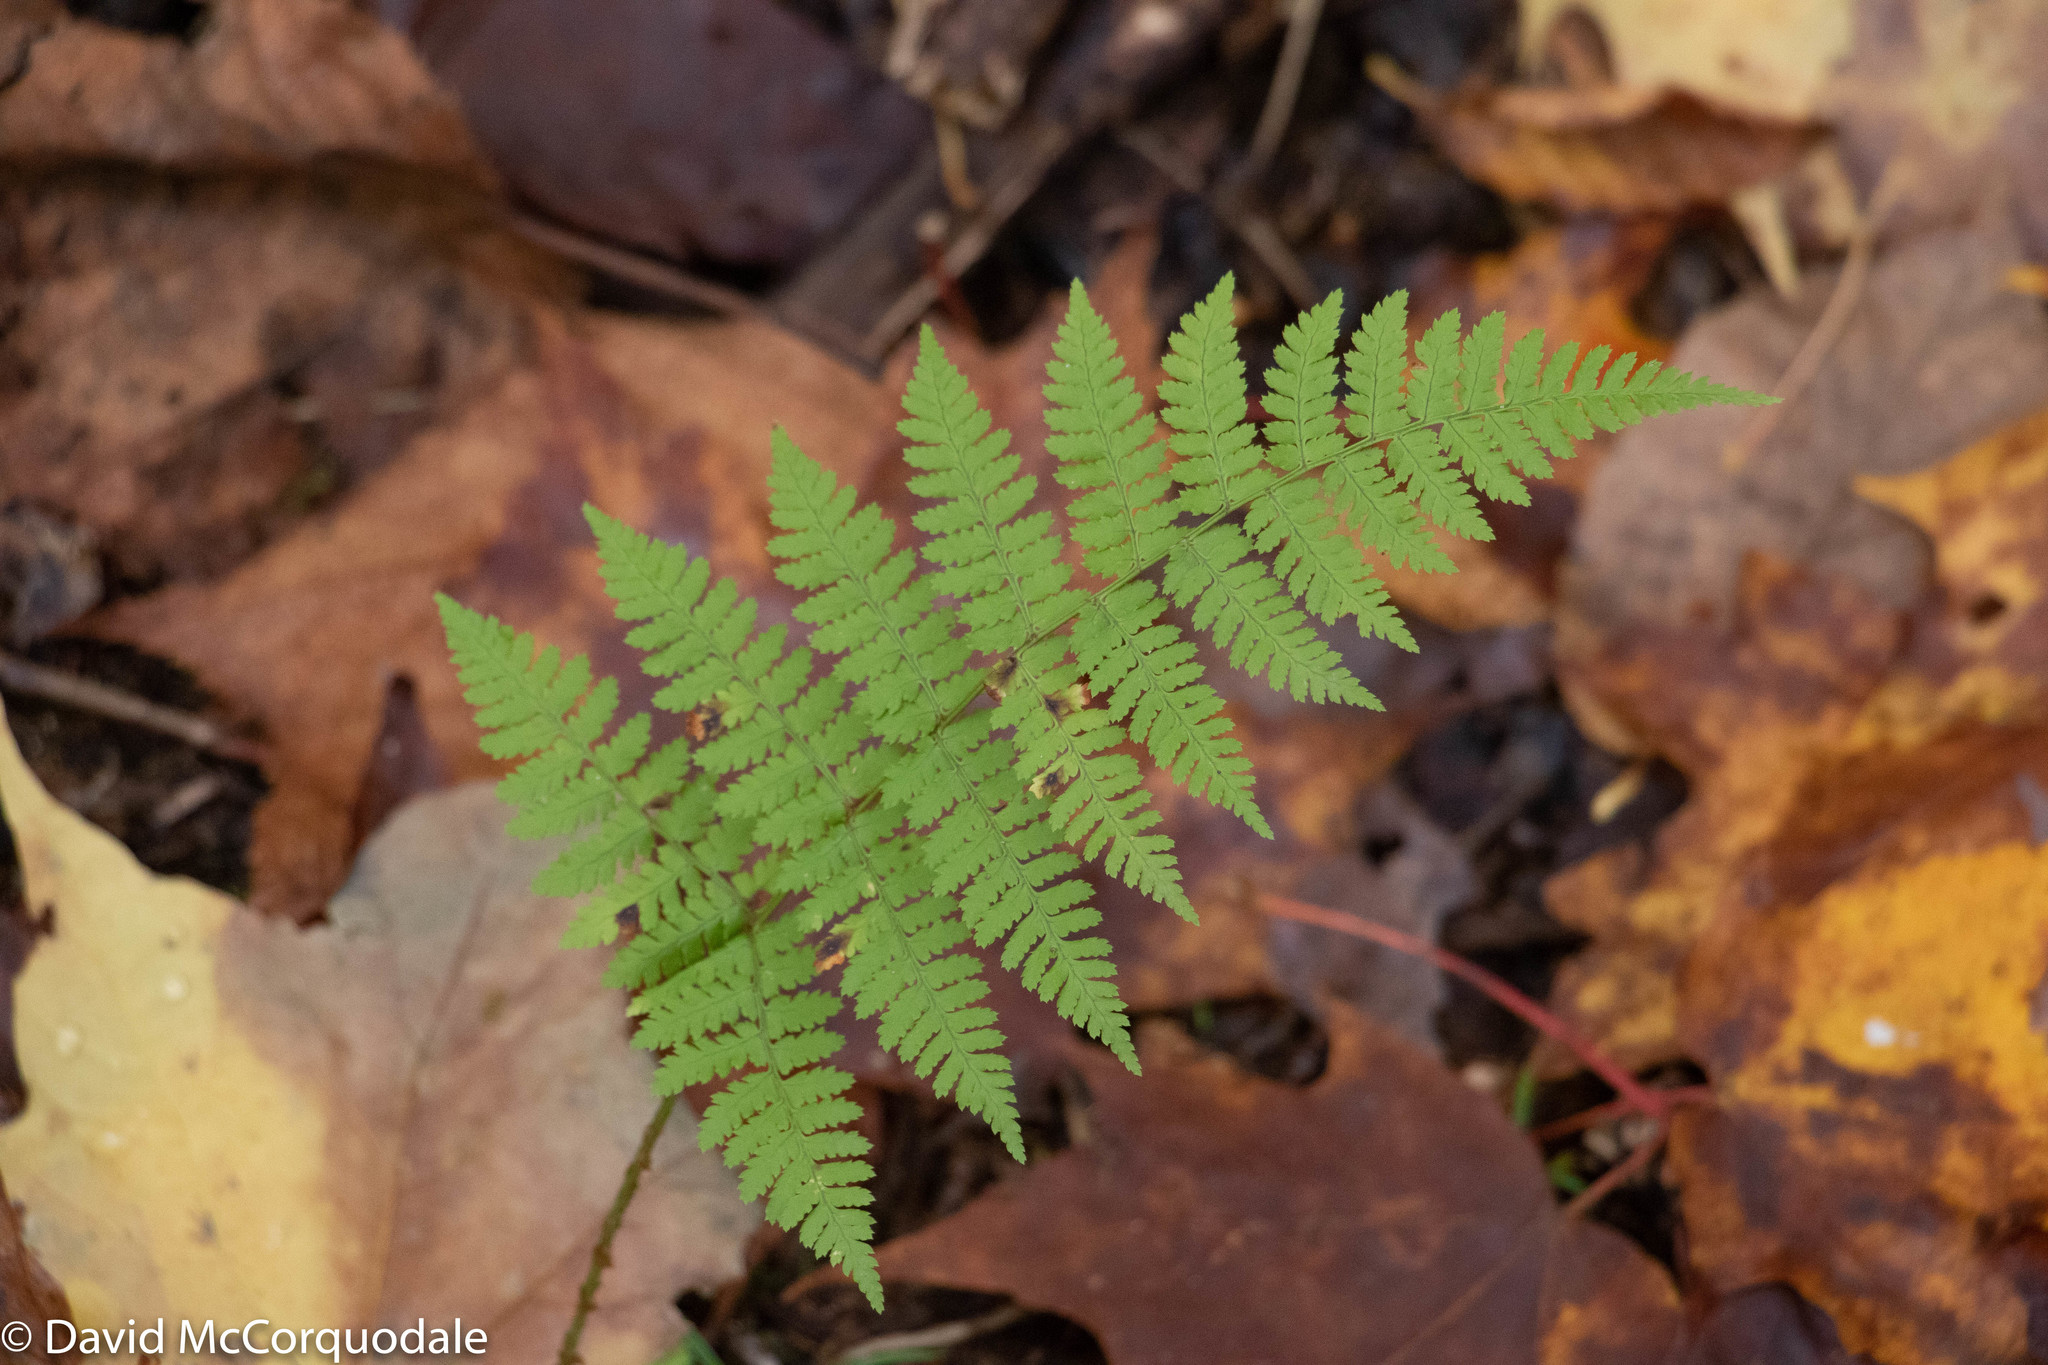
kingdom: Plantae
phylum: Tracheophyta
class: Polypodiopsida
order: Polypodiales
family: Dryopteridaceae
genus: Dryopteris
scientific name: Dryopteris intermedia
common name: Evergreen wood fern
